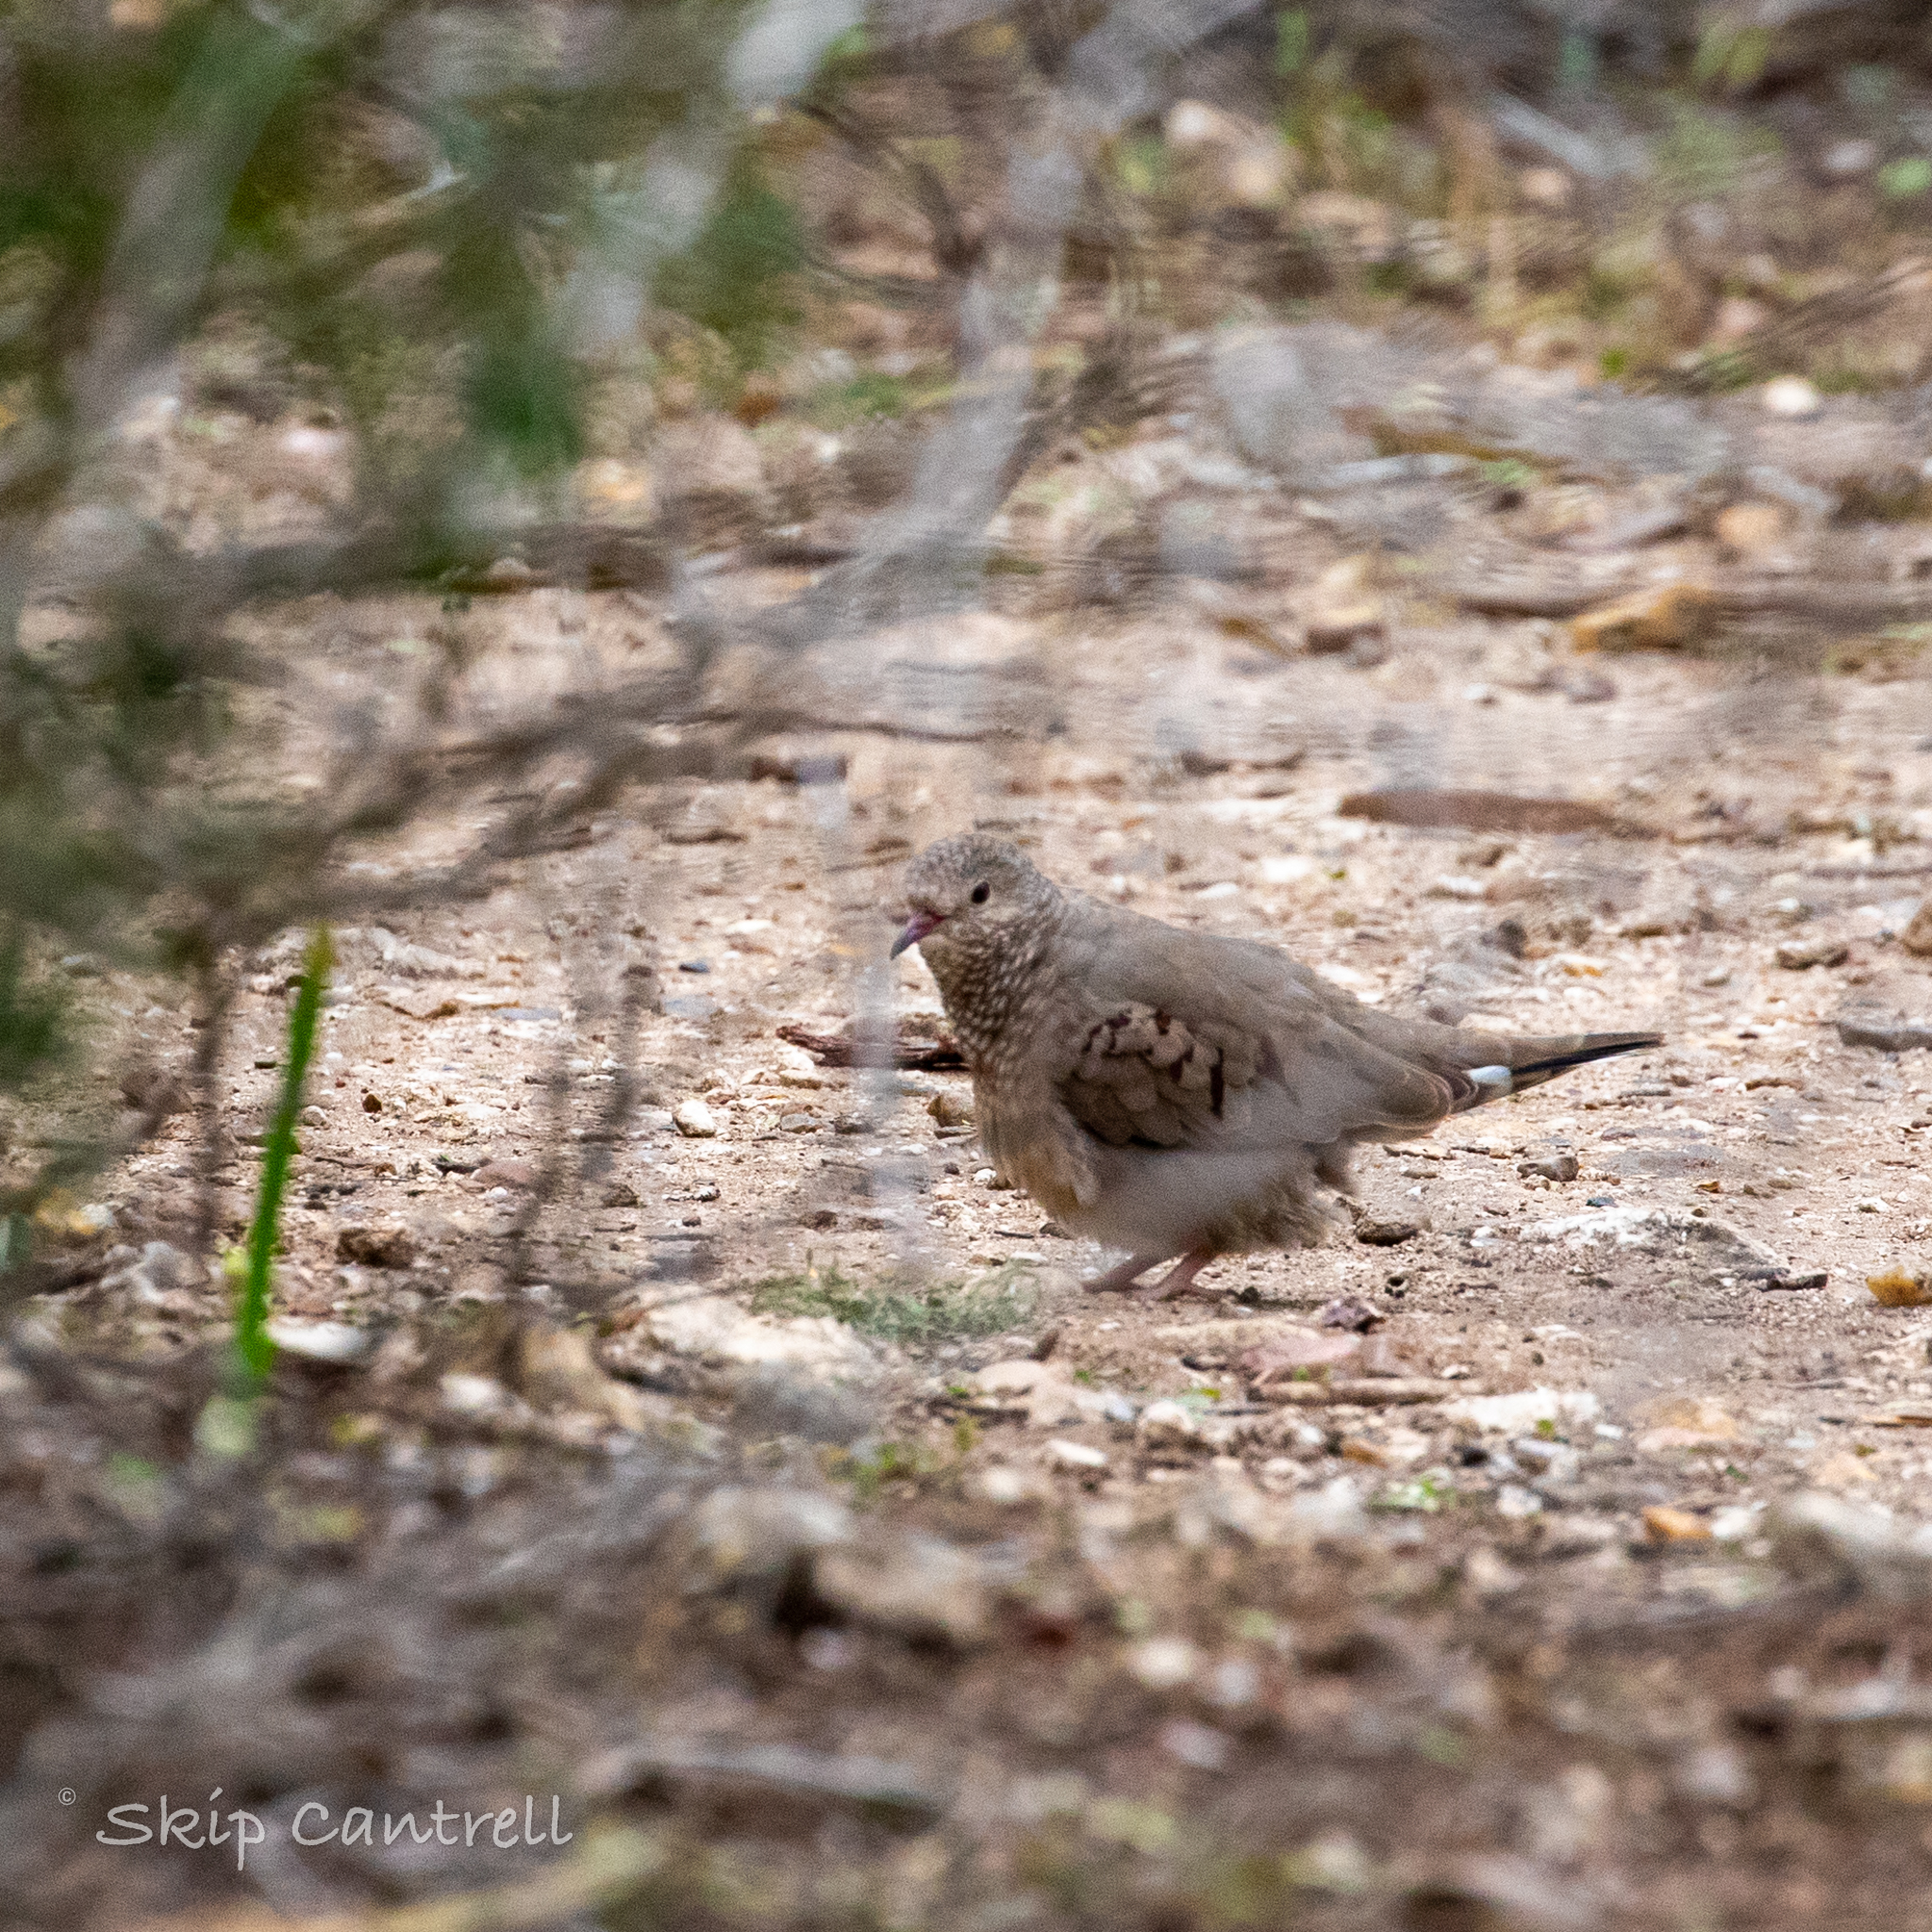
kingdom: Animalia
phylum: Chordata
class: Aves
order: Columbiformes
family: Columbidae
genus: Columbina
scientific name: Columbina passerina
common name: Common ground-dove
